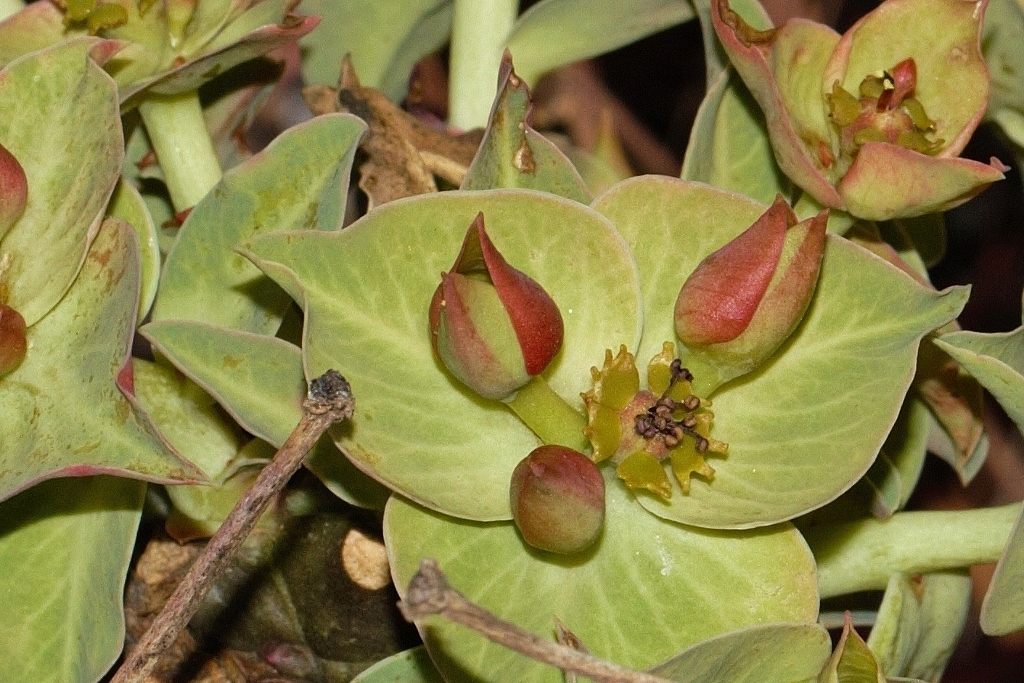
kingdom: Plantae
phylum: Tracheophyta
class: Magnoliopsida
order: Malpighiales
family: Euphorbiaceae
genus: Euphorbia
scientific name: Euphorbia wildii
